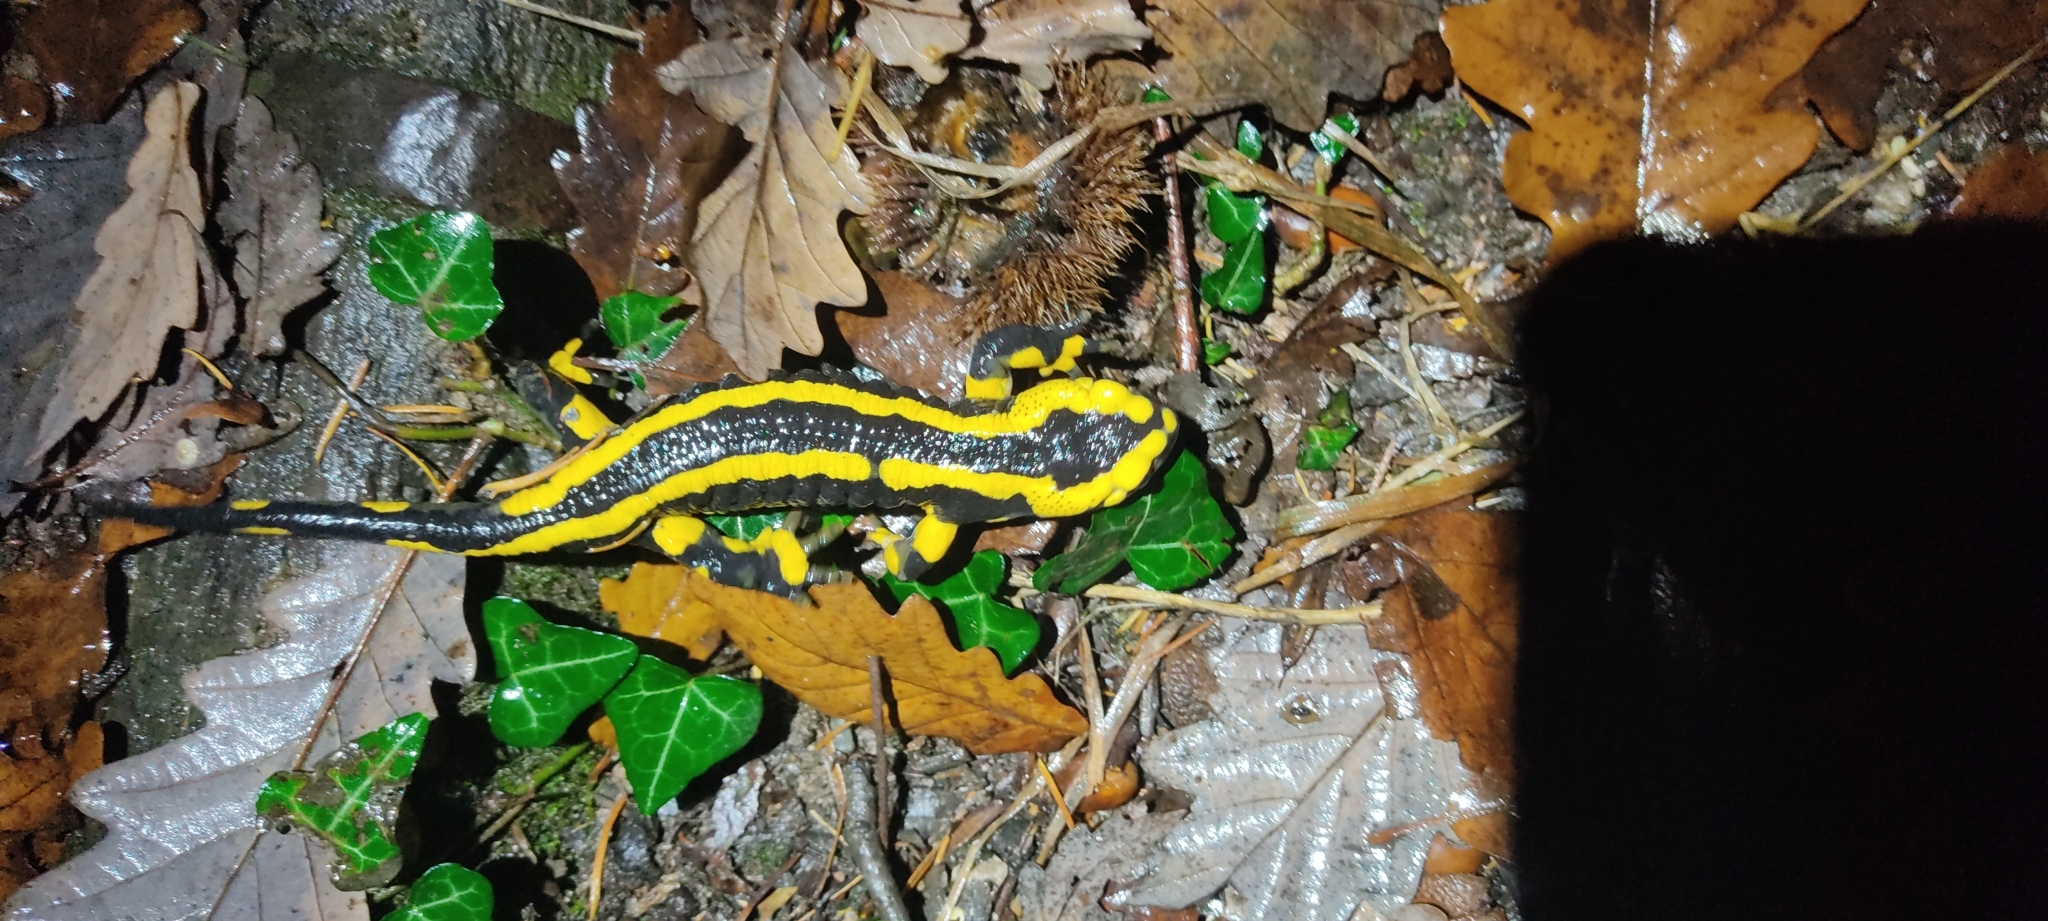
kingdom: Animalia
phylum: Chordata
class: Amphibia
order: Caudata
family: Salamandridae
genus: Salamandra
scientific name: Salamandra salamandra
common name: Fire salamander
